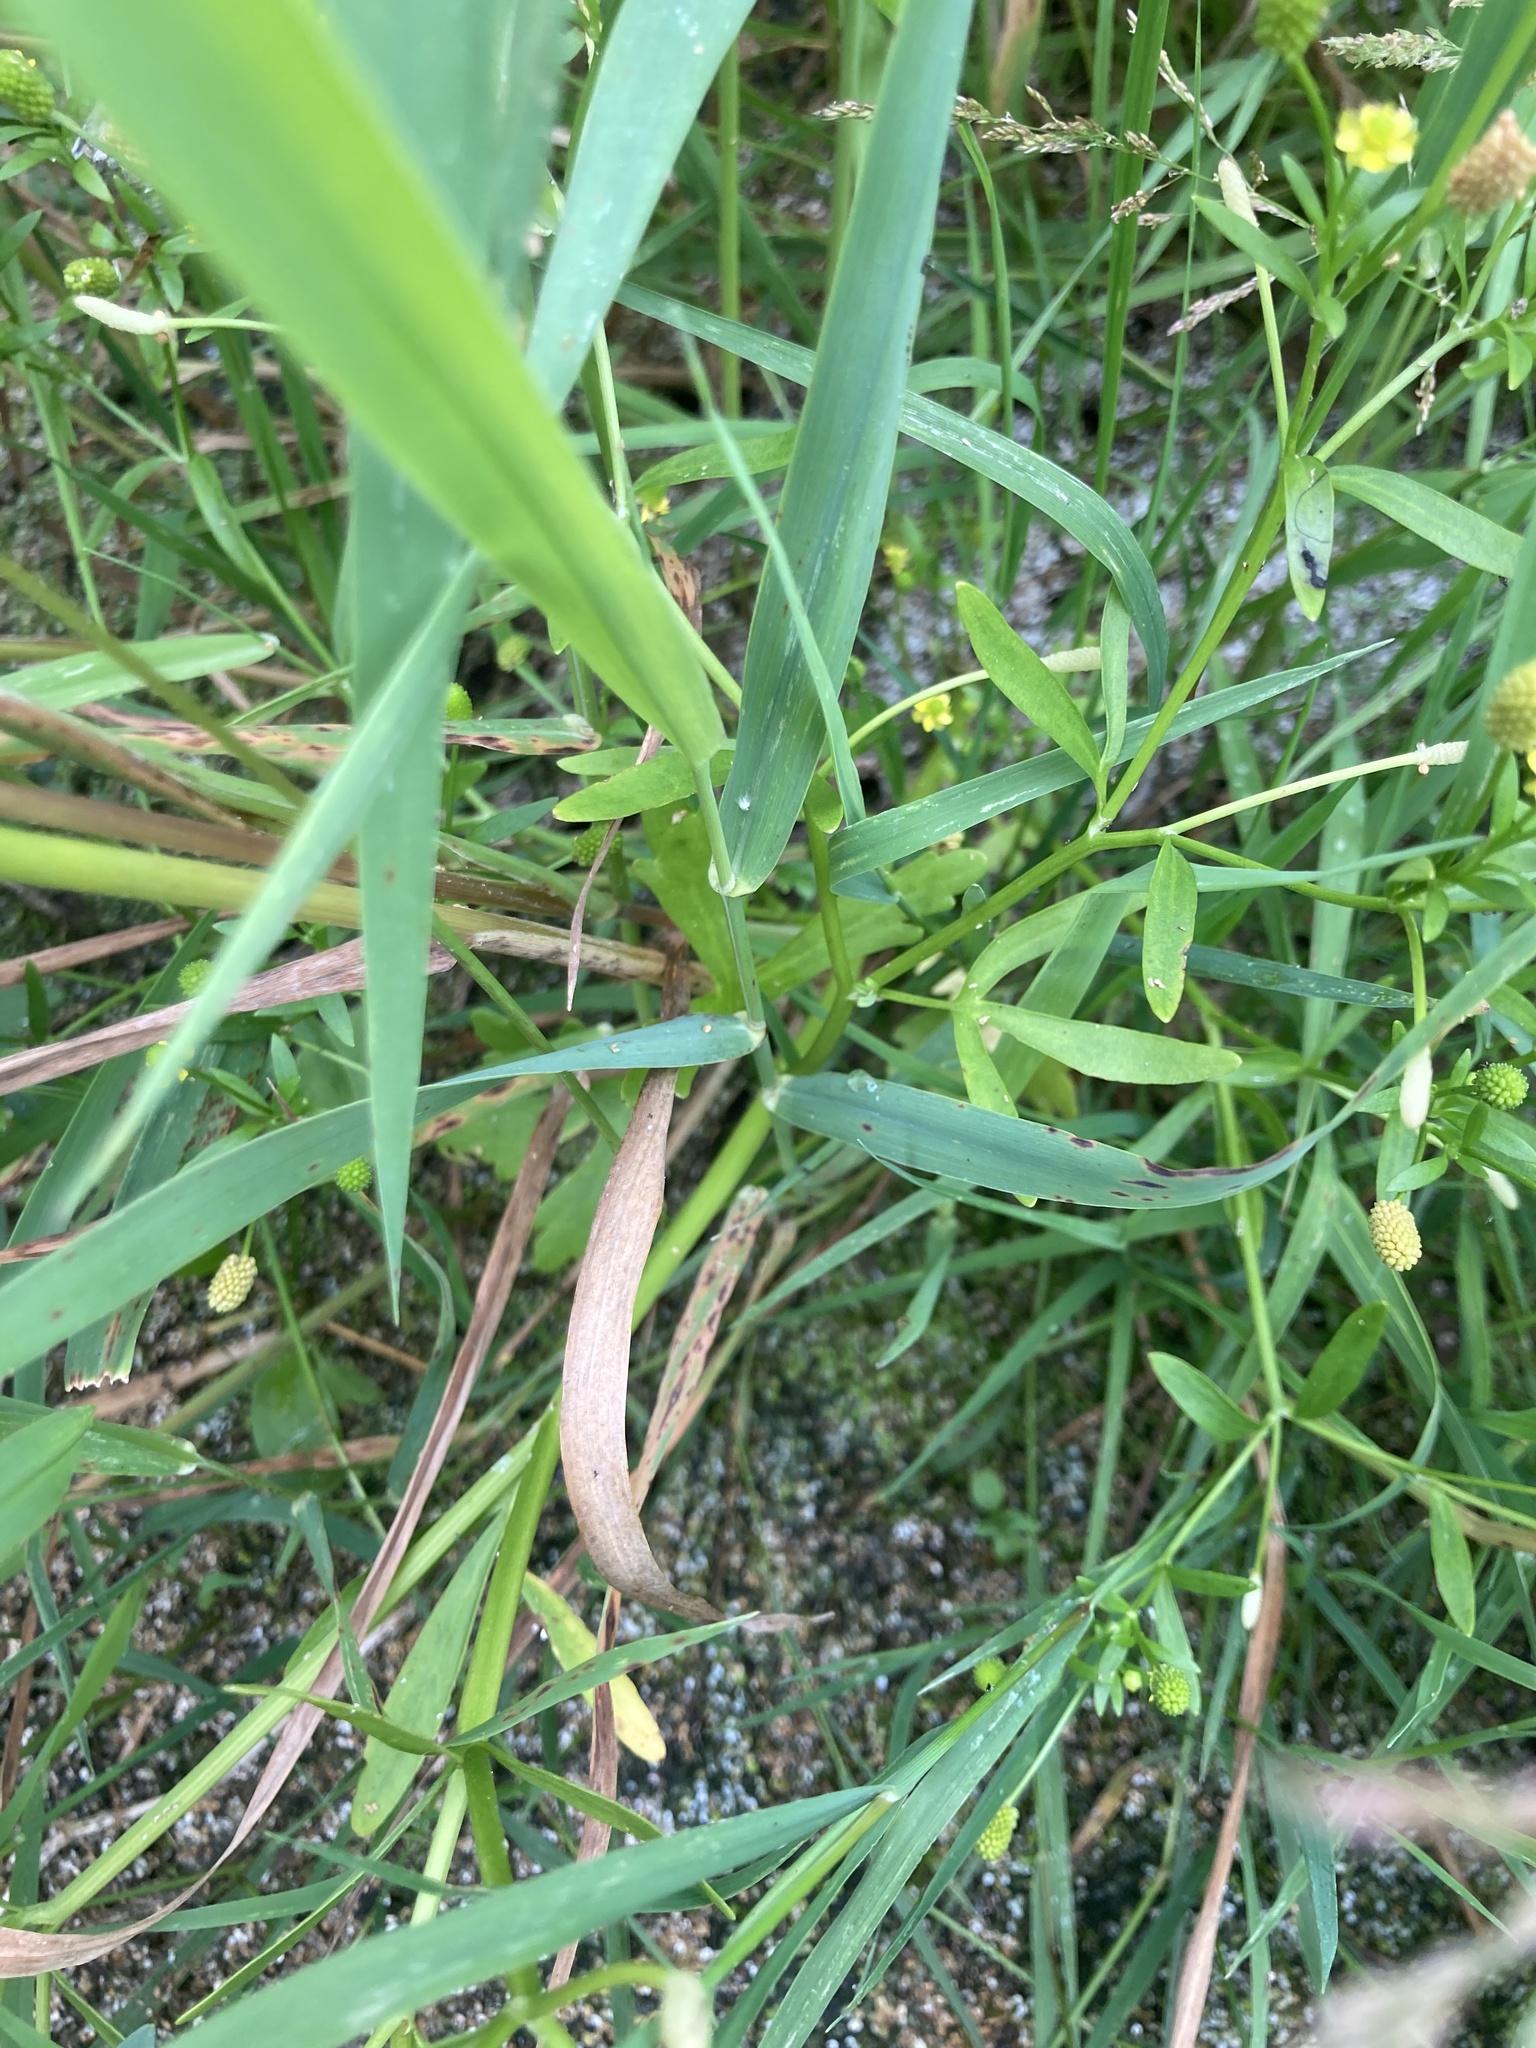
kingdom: Plantae
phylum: Tracheophyta
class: Magnoliopsida
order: Ranunculales
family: Ranunculaceae
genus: Ranunculus
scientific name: Ranunculus sceleratus
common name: Celery-leaved buttercup
